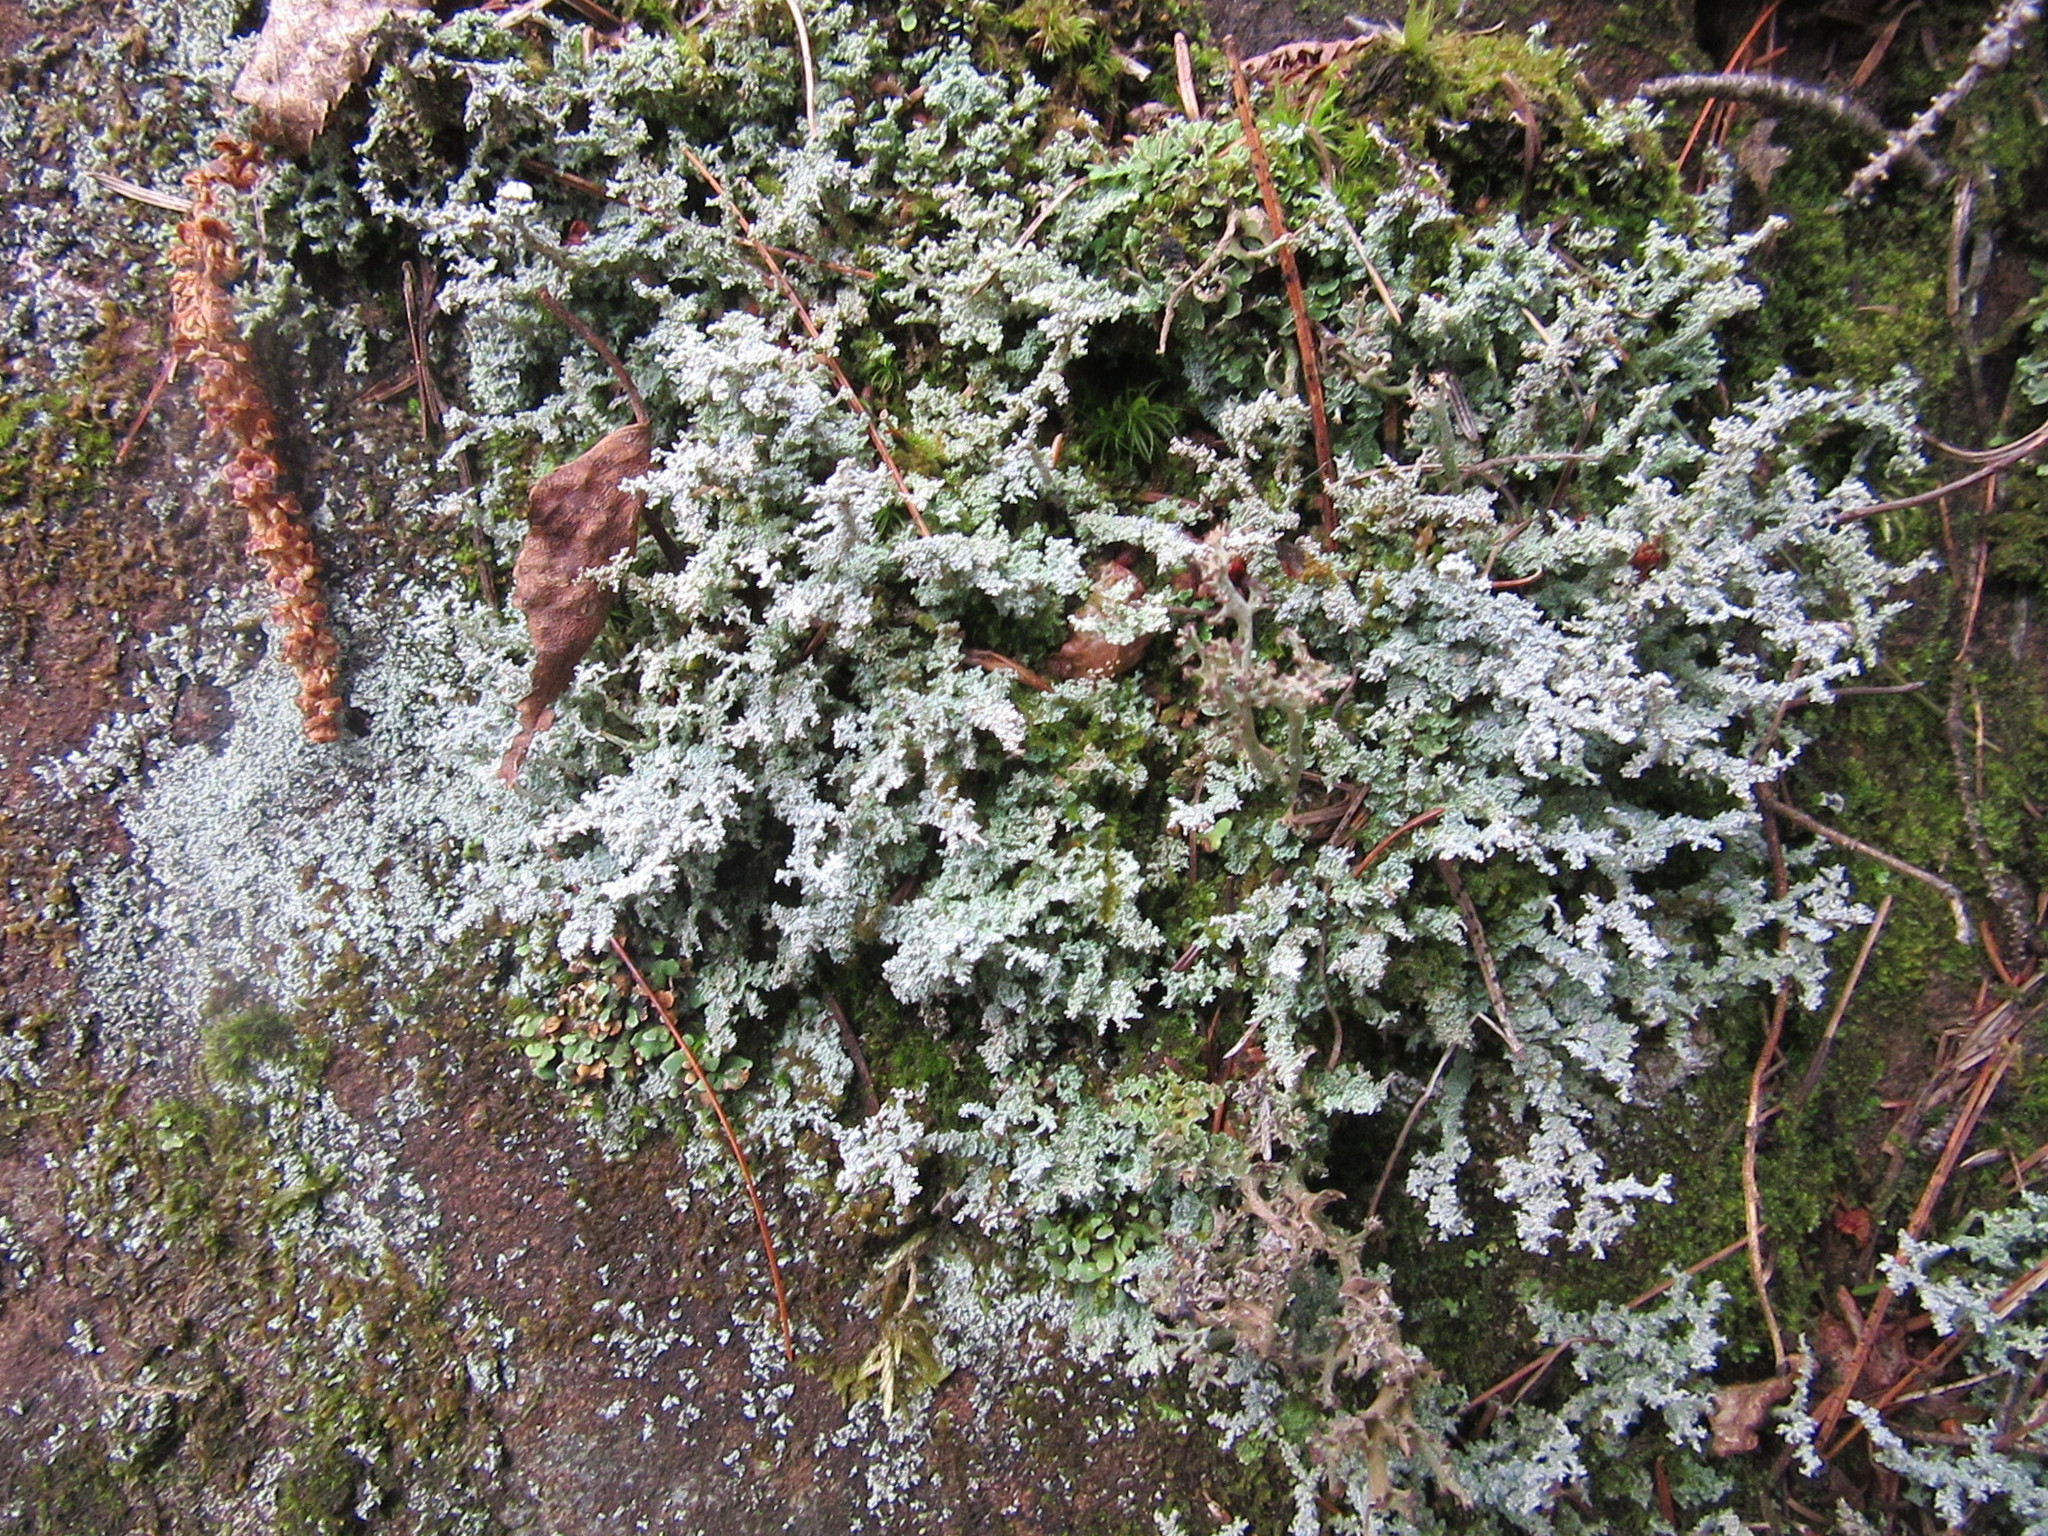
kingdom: Fungi
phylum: Ascomycota
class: Lecanoromycetes
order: Lecanorales
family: Stereocaulaceae
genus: Stereocaulon
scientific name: Stereocaulon paschale
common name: Cottontail foam lichen
